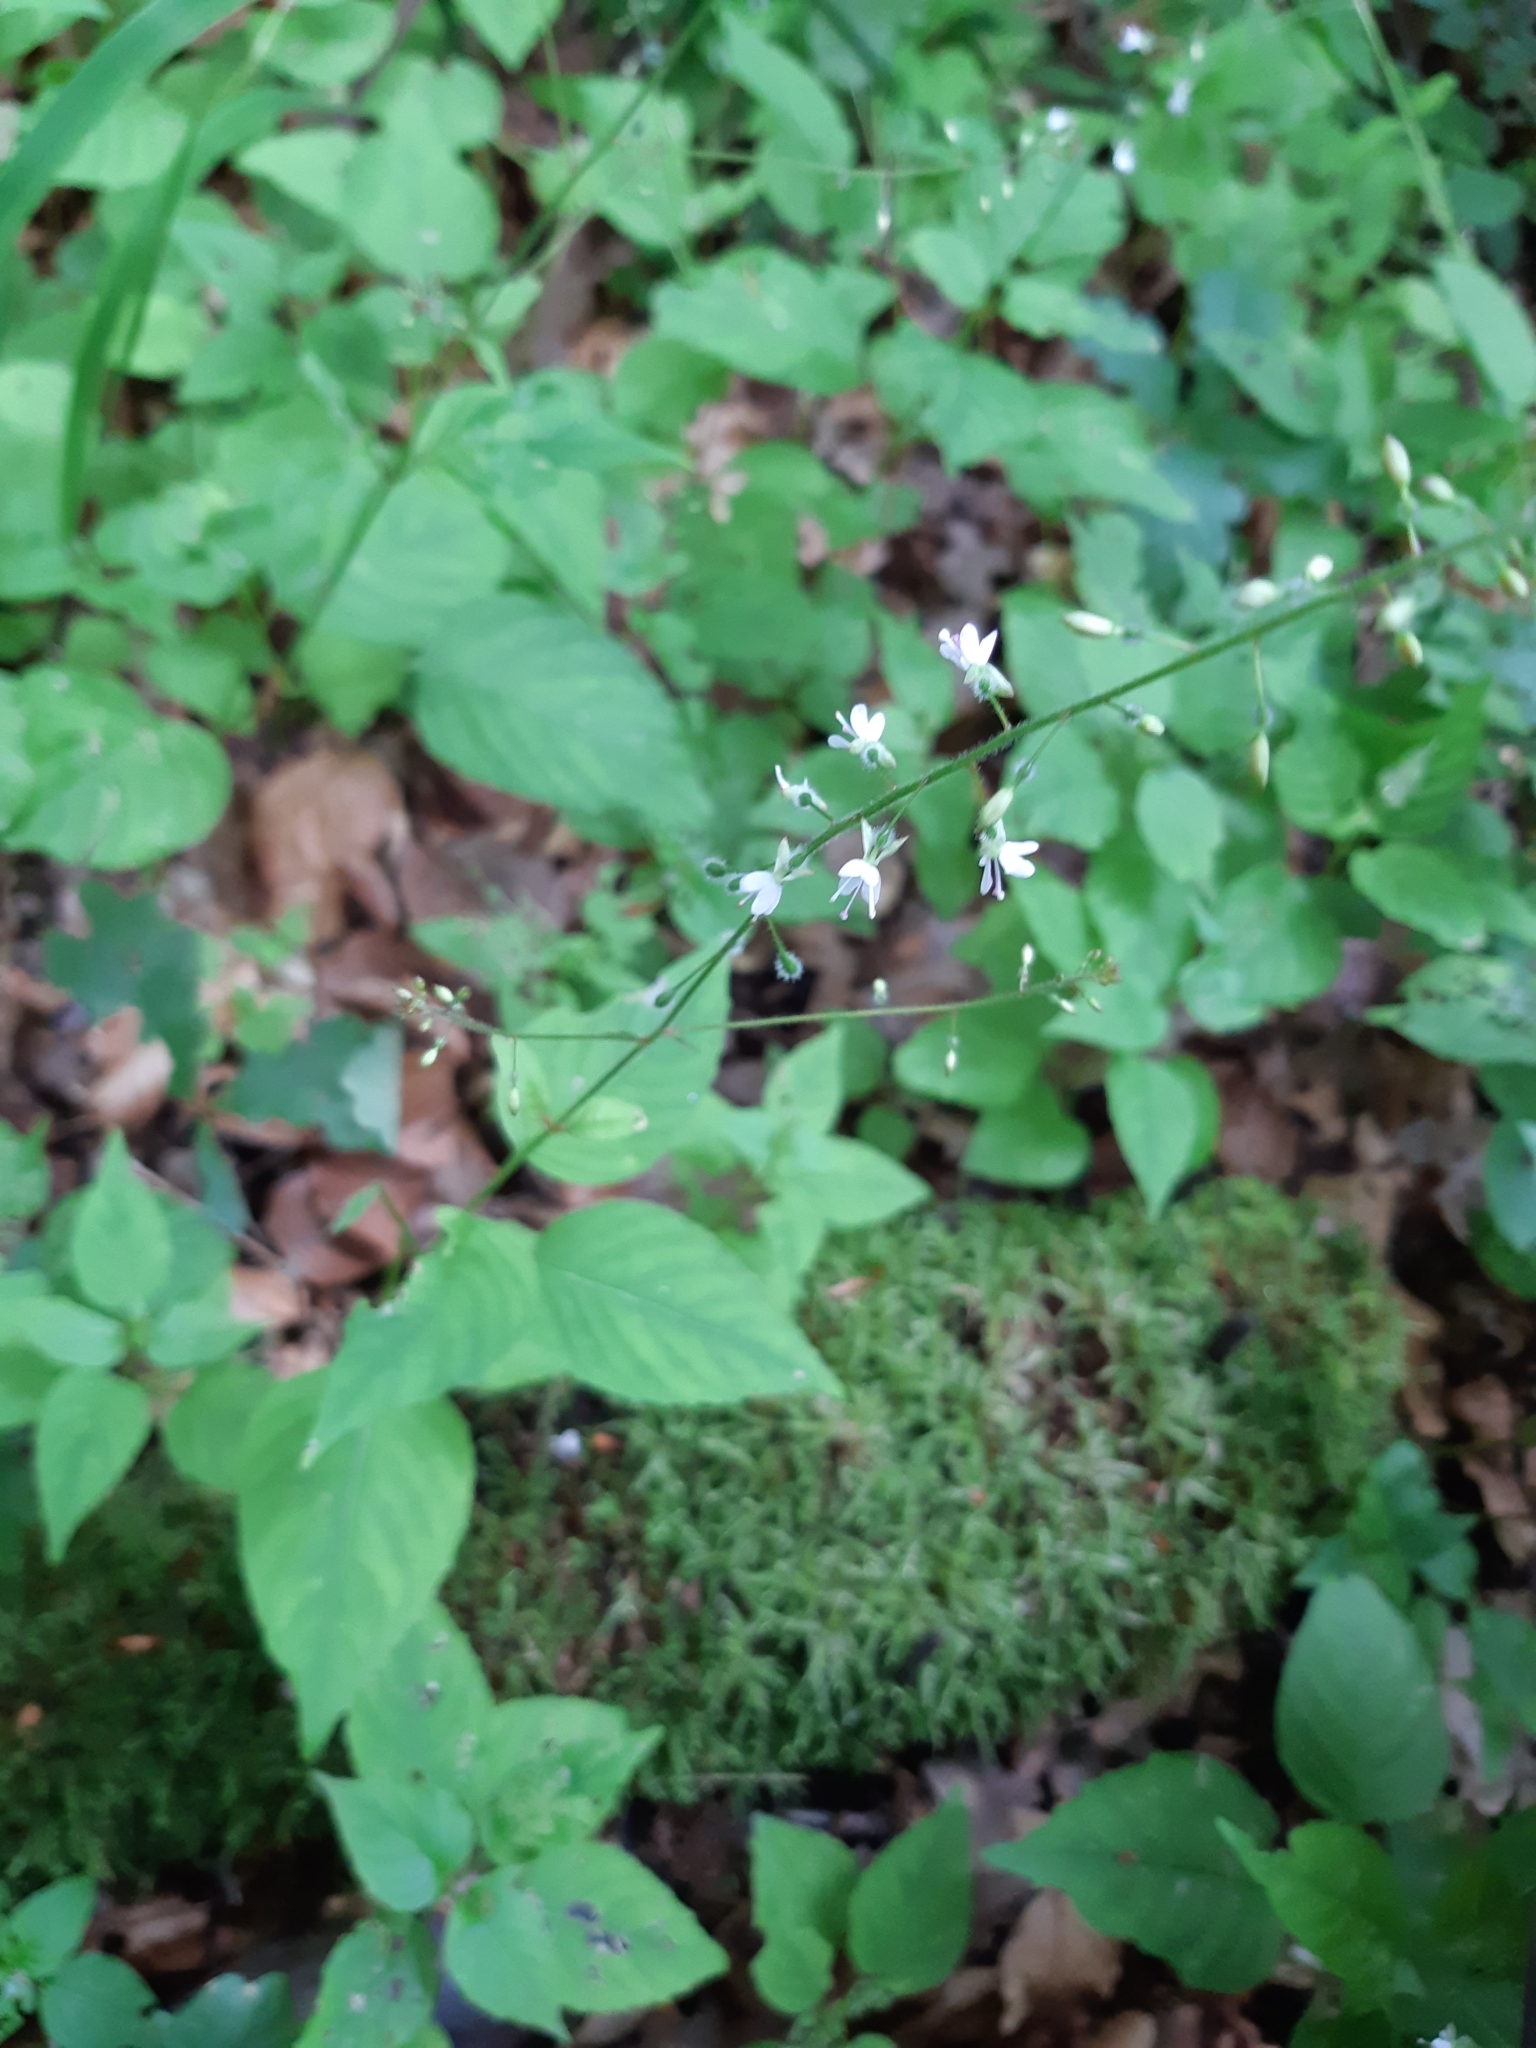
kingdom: Plantae
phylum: Tracheophyta
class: Magnoliopsida
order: Myrtales
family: Onagraceae
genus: Circaea
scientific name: Circaea lutetiana
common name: Enchanter's-nightshade
